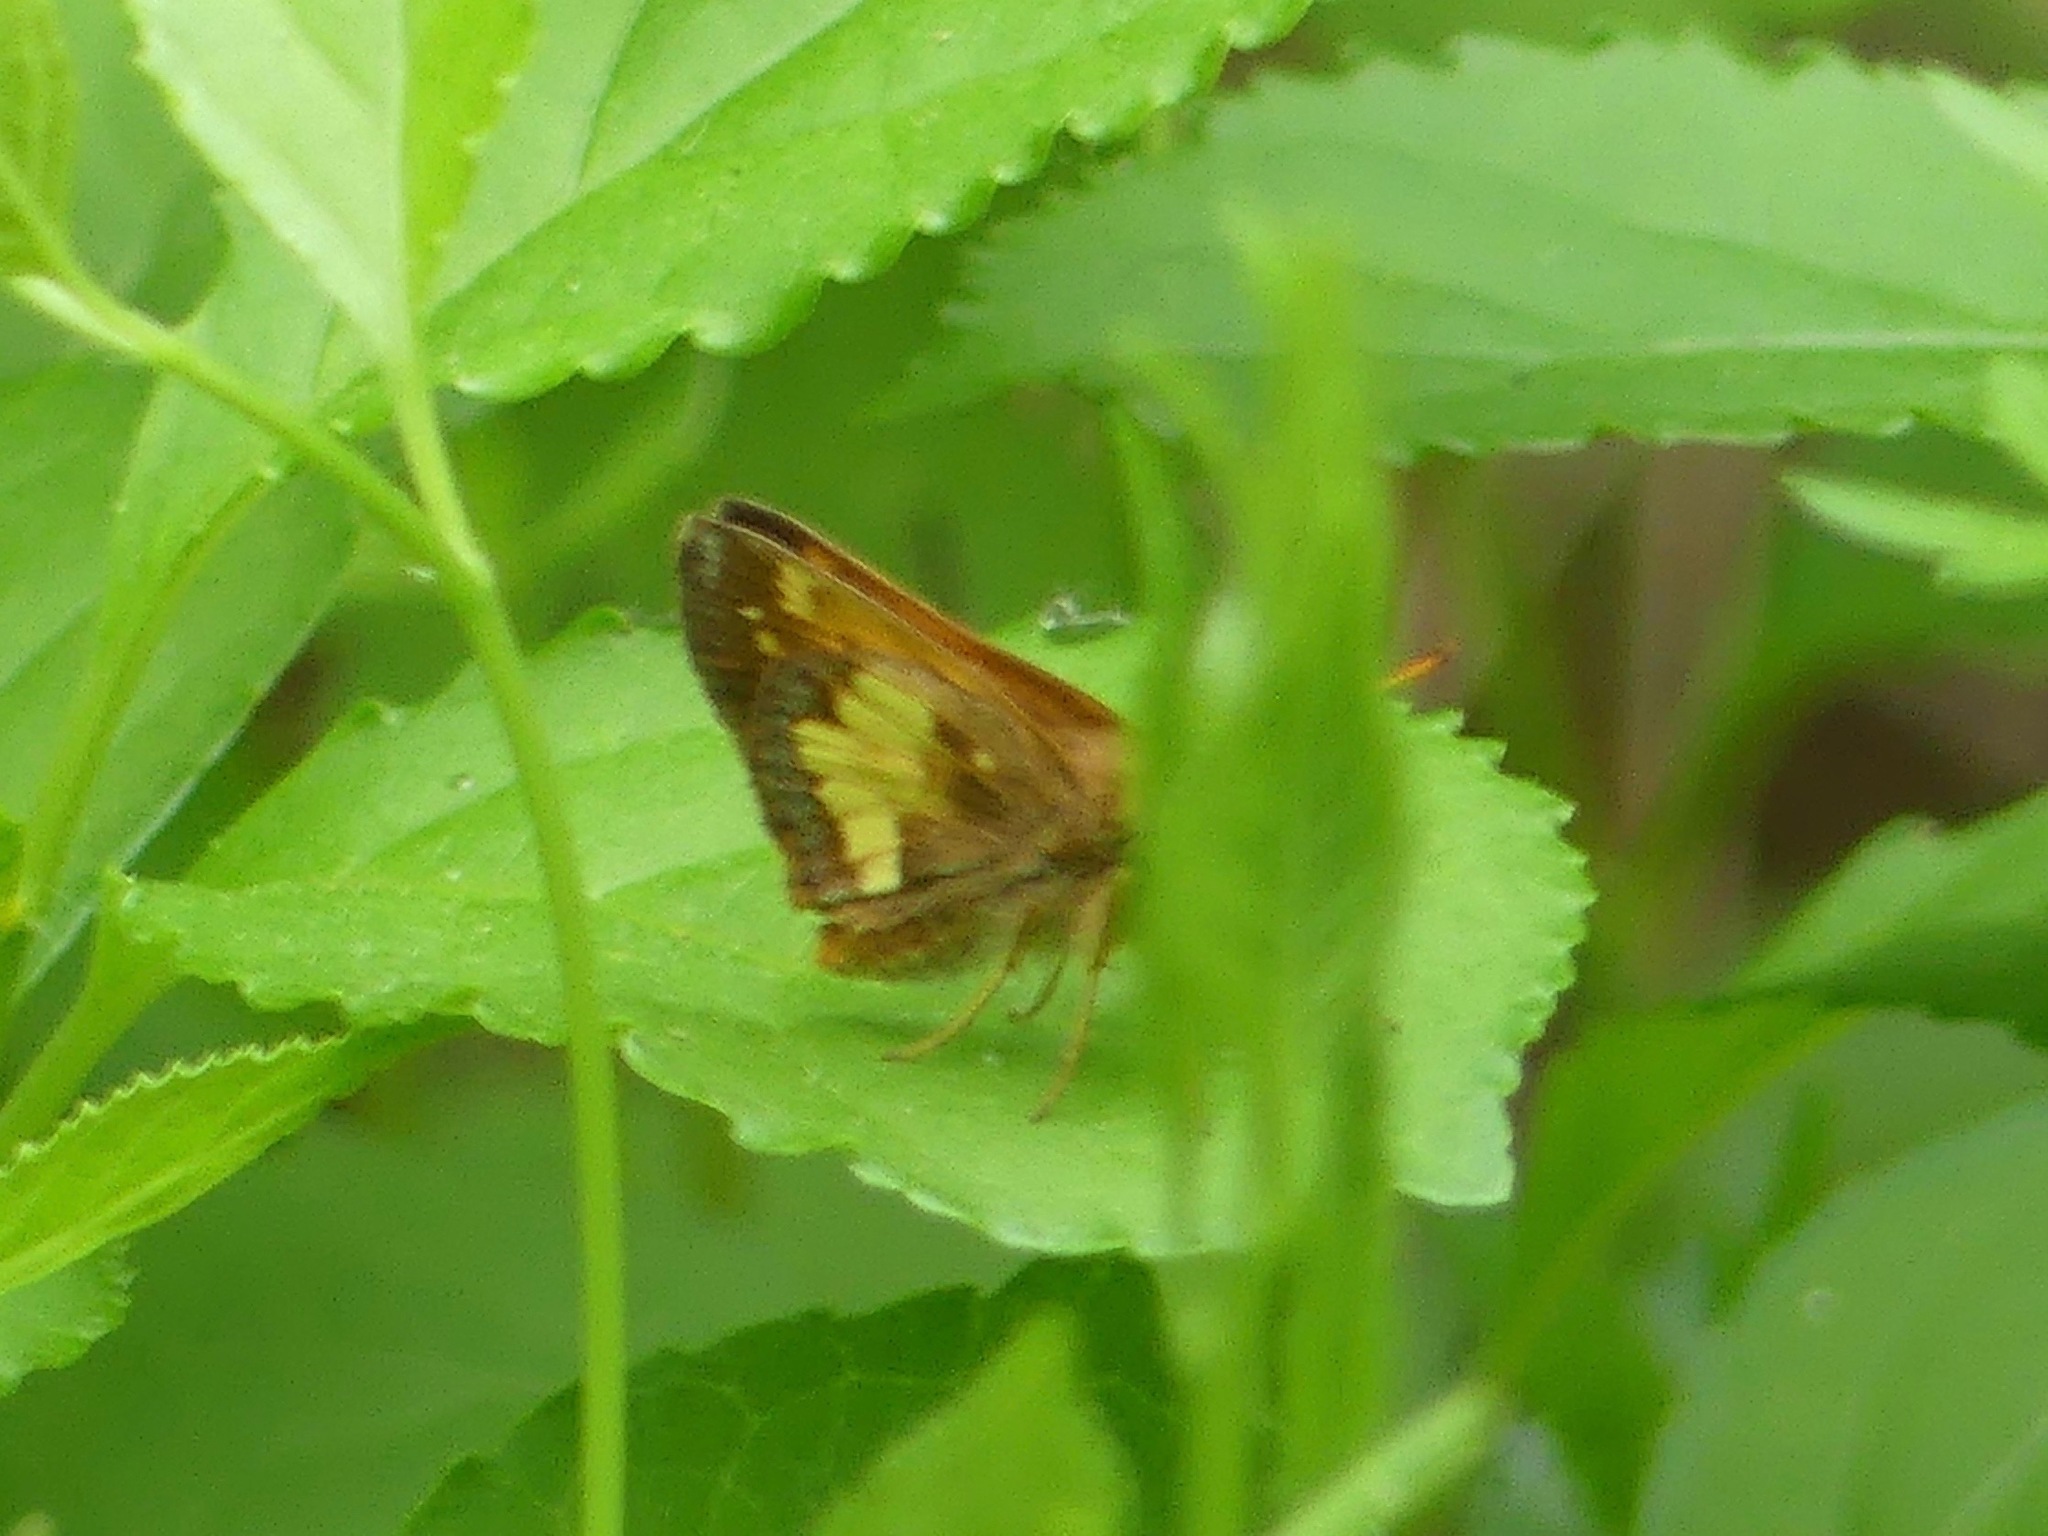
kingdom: Animalia
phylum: Arthropoda
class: Insecta
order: Lepidoptera
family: Hesperiidae
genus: Lon
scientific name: Lon hobomok
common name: Hobomok skipper
